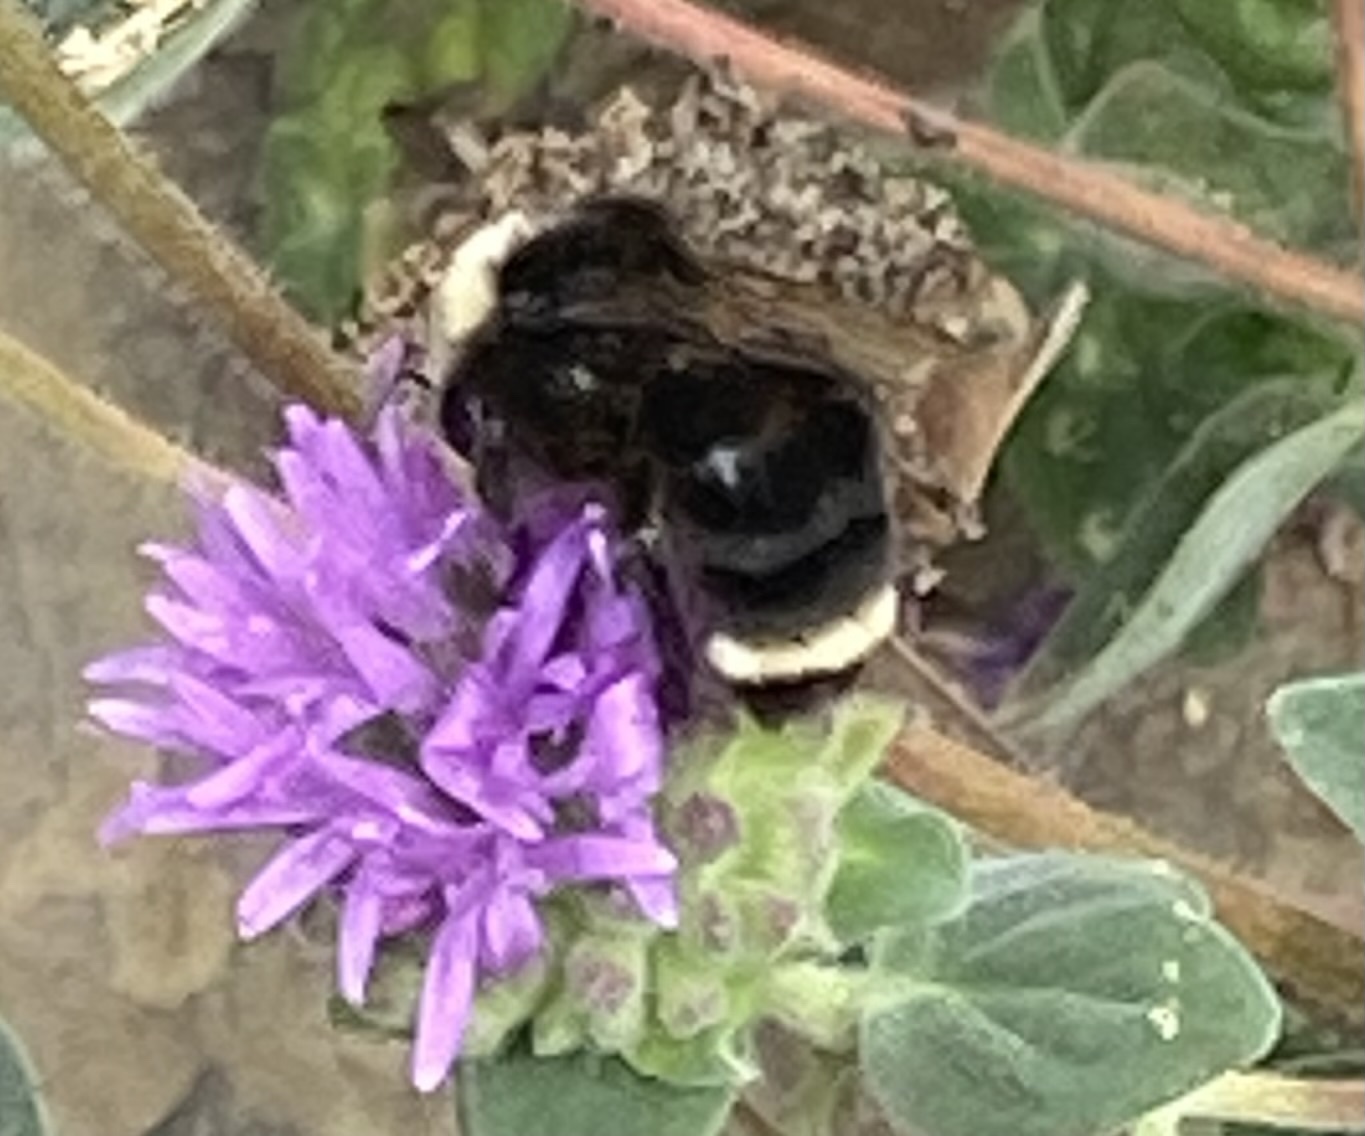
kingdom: Animalia
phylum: Arthropoda
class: Insecta
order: Hymenoptera
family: Apidae
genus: Bombus
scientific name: Bombus vosnesenskii
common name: Vosnesensky bumble bee
